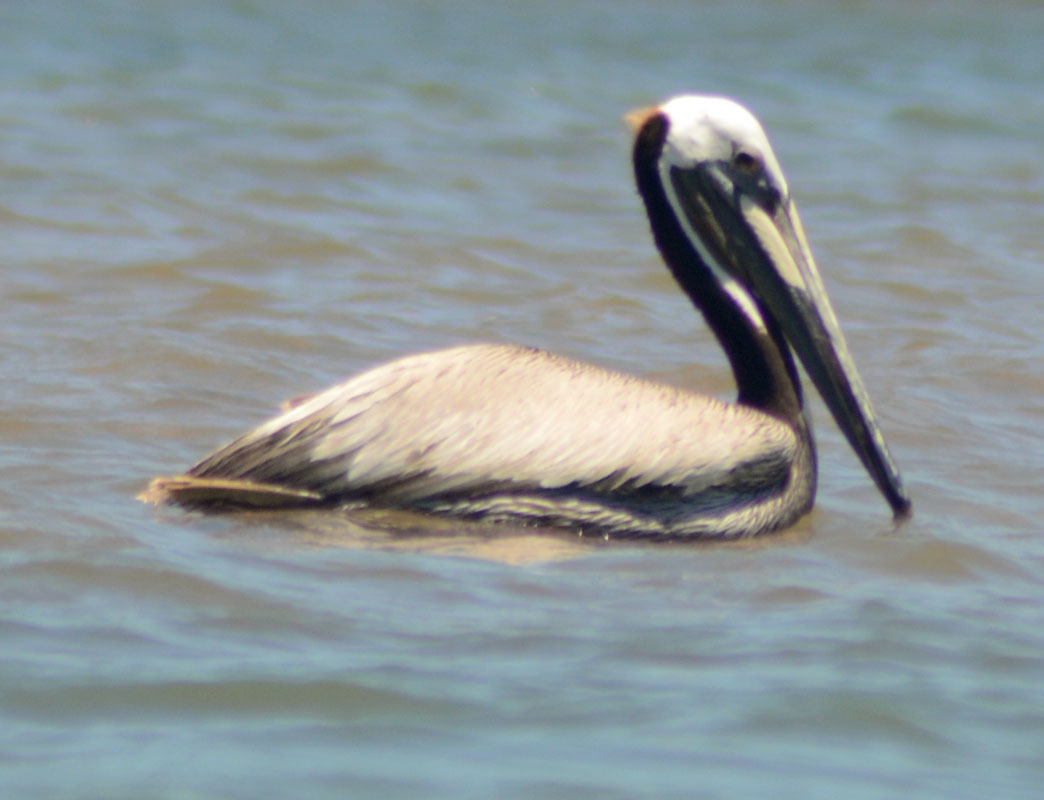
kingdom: Animalia
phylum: Chordata
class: Aves
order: Pelecaniformes
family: Pelecanidae
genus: Pelecanus
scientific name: Pelecanus occidentalis
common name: Brown pelican
